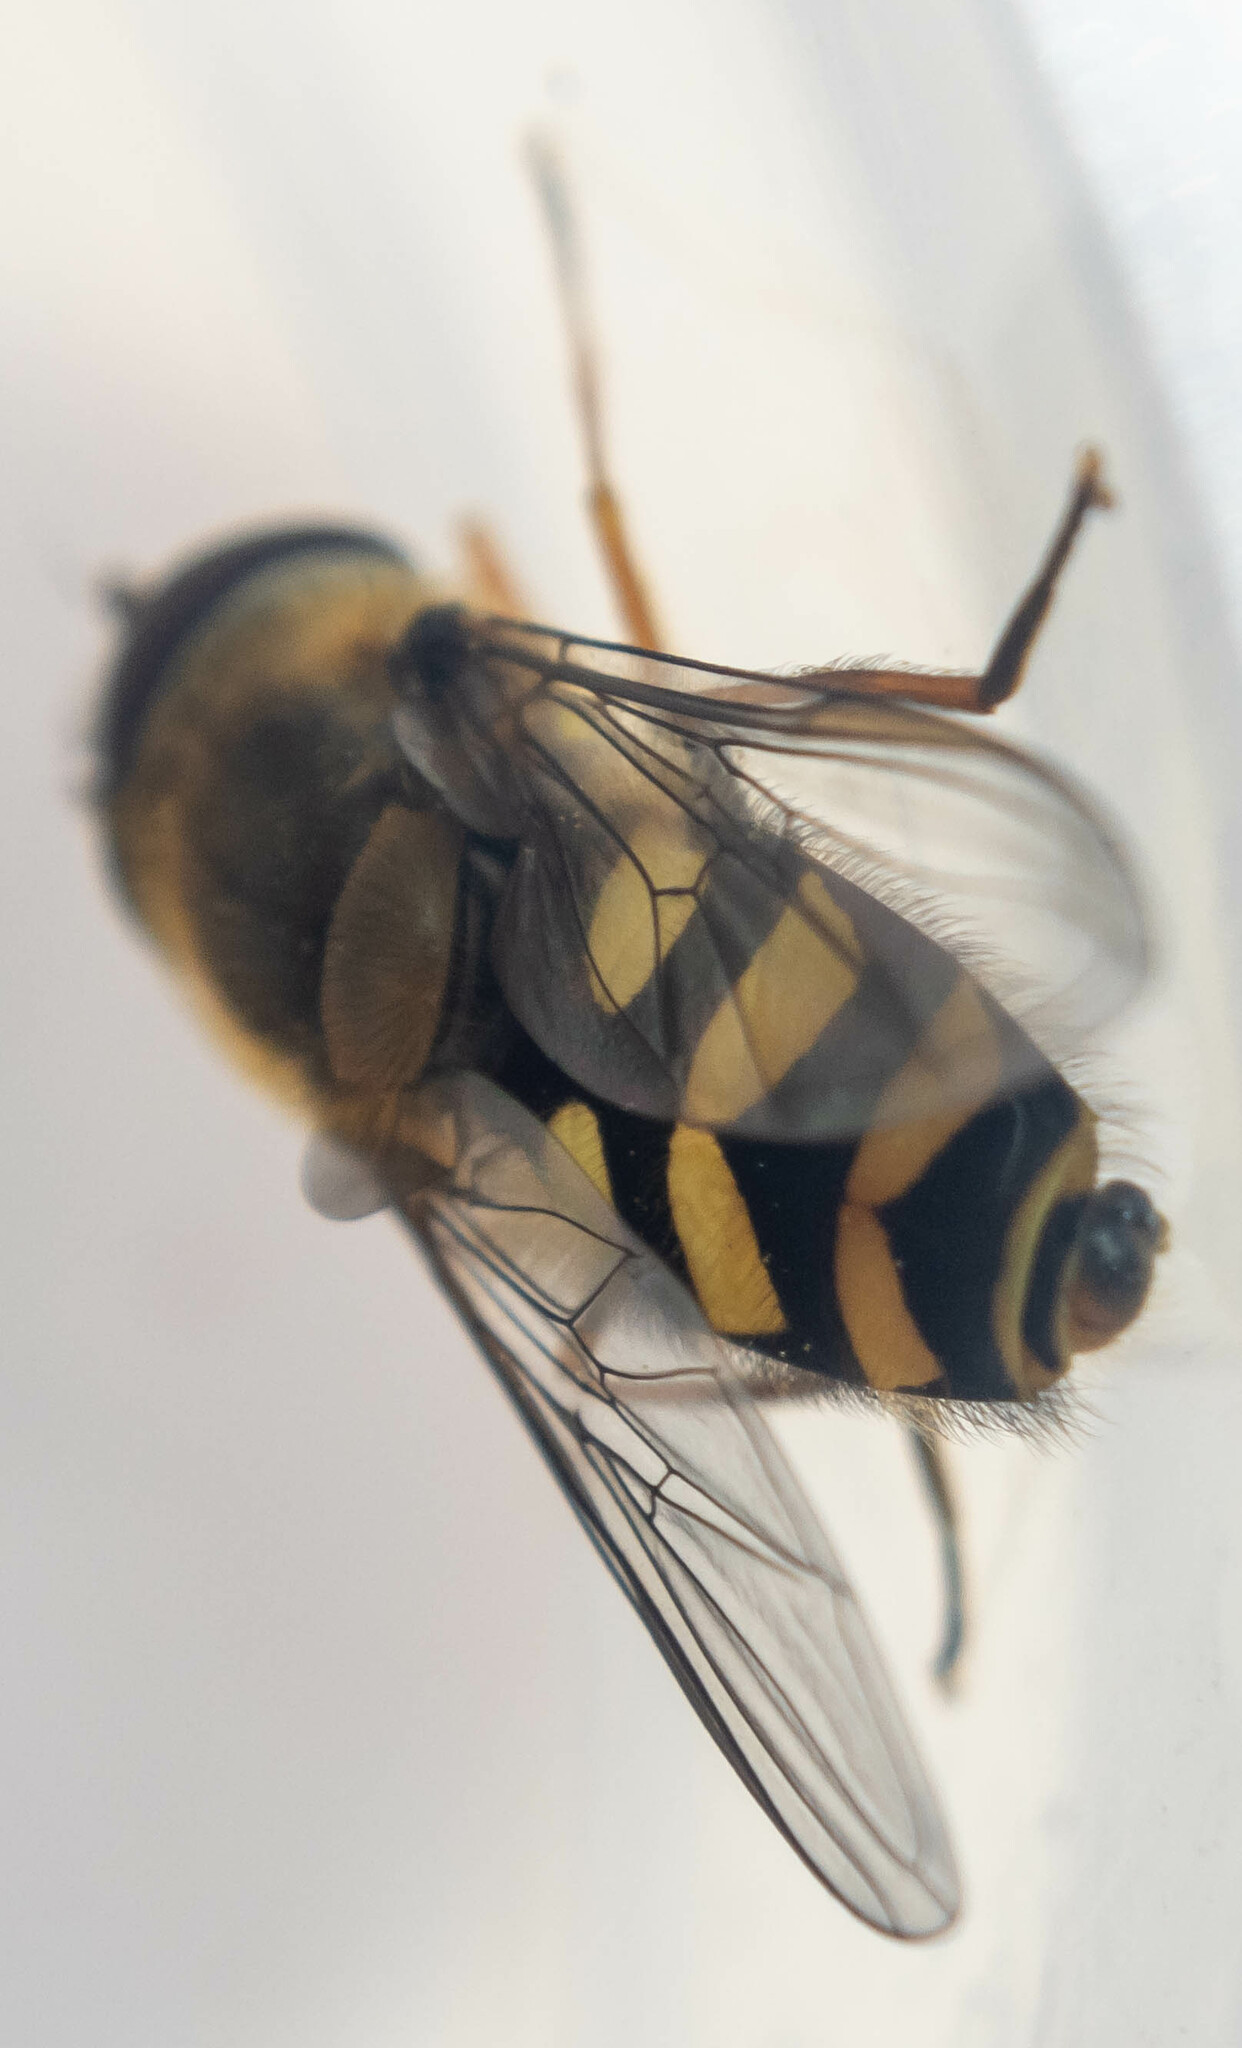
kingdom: Animalia
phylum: Arthropoda
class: Insecta
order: Diptera
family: Syrphidae
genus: Syrphus
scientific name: Syrphus
